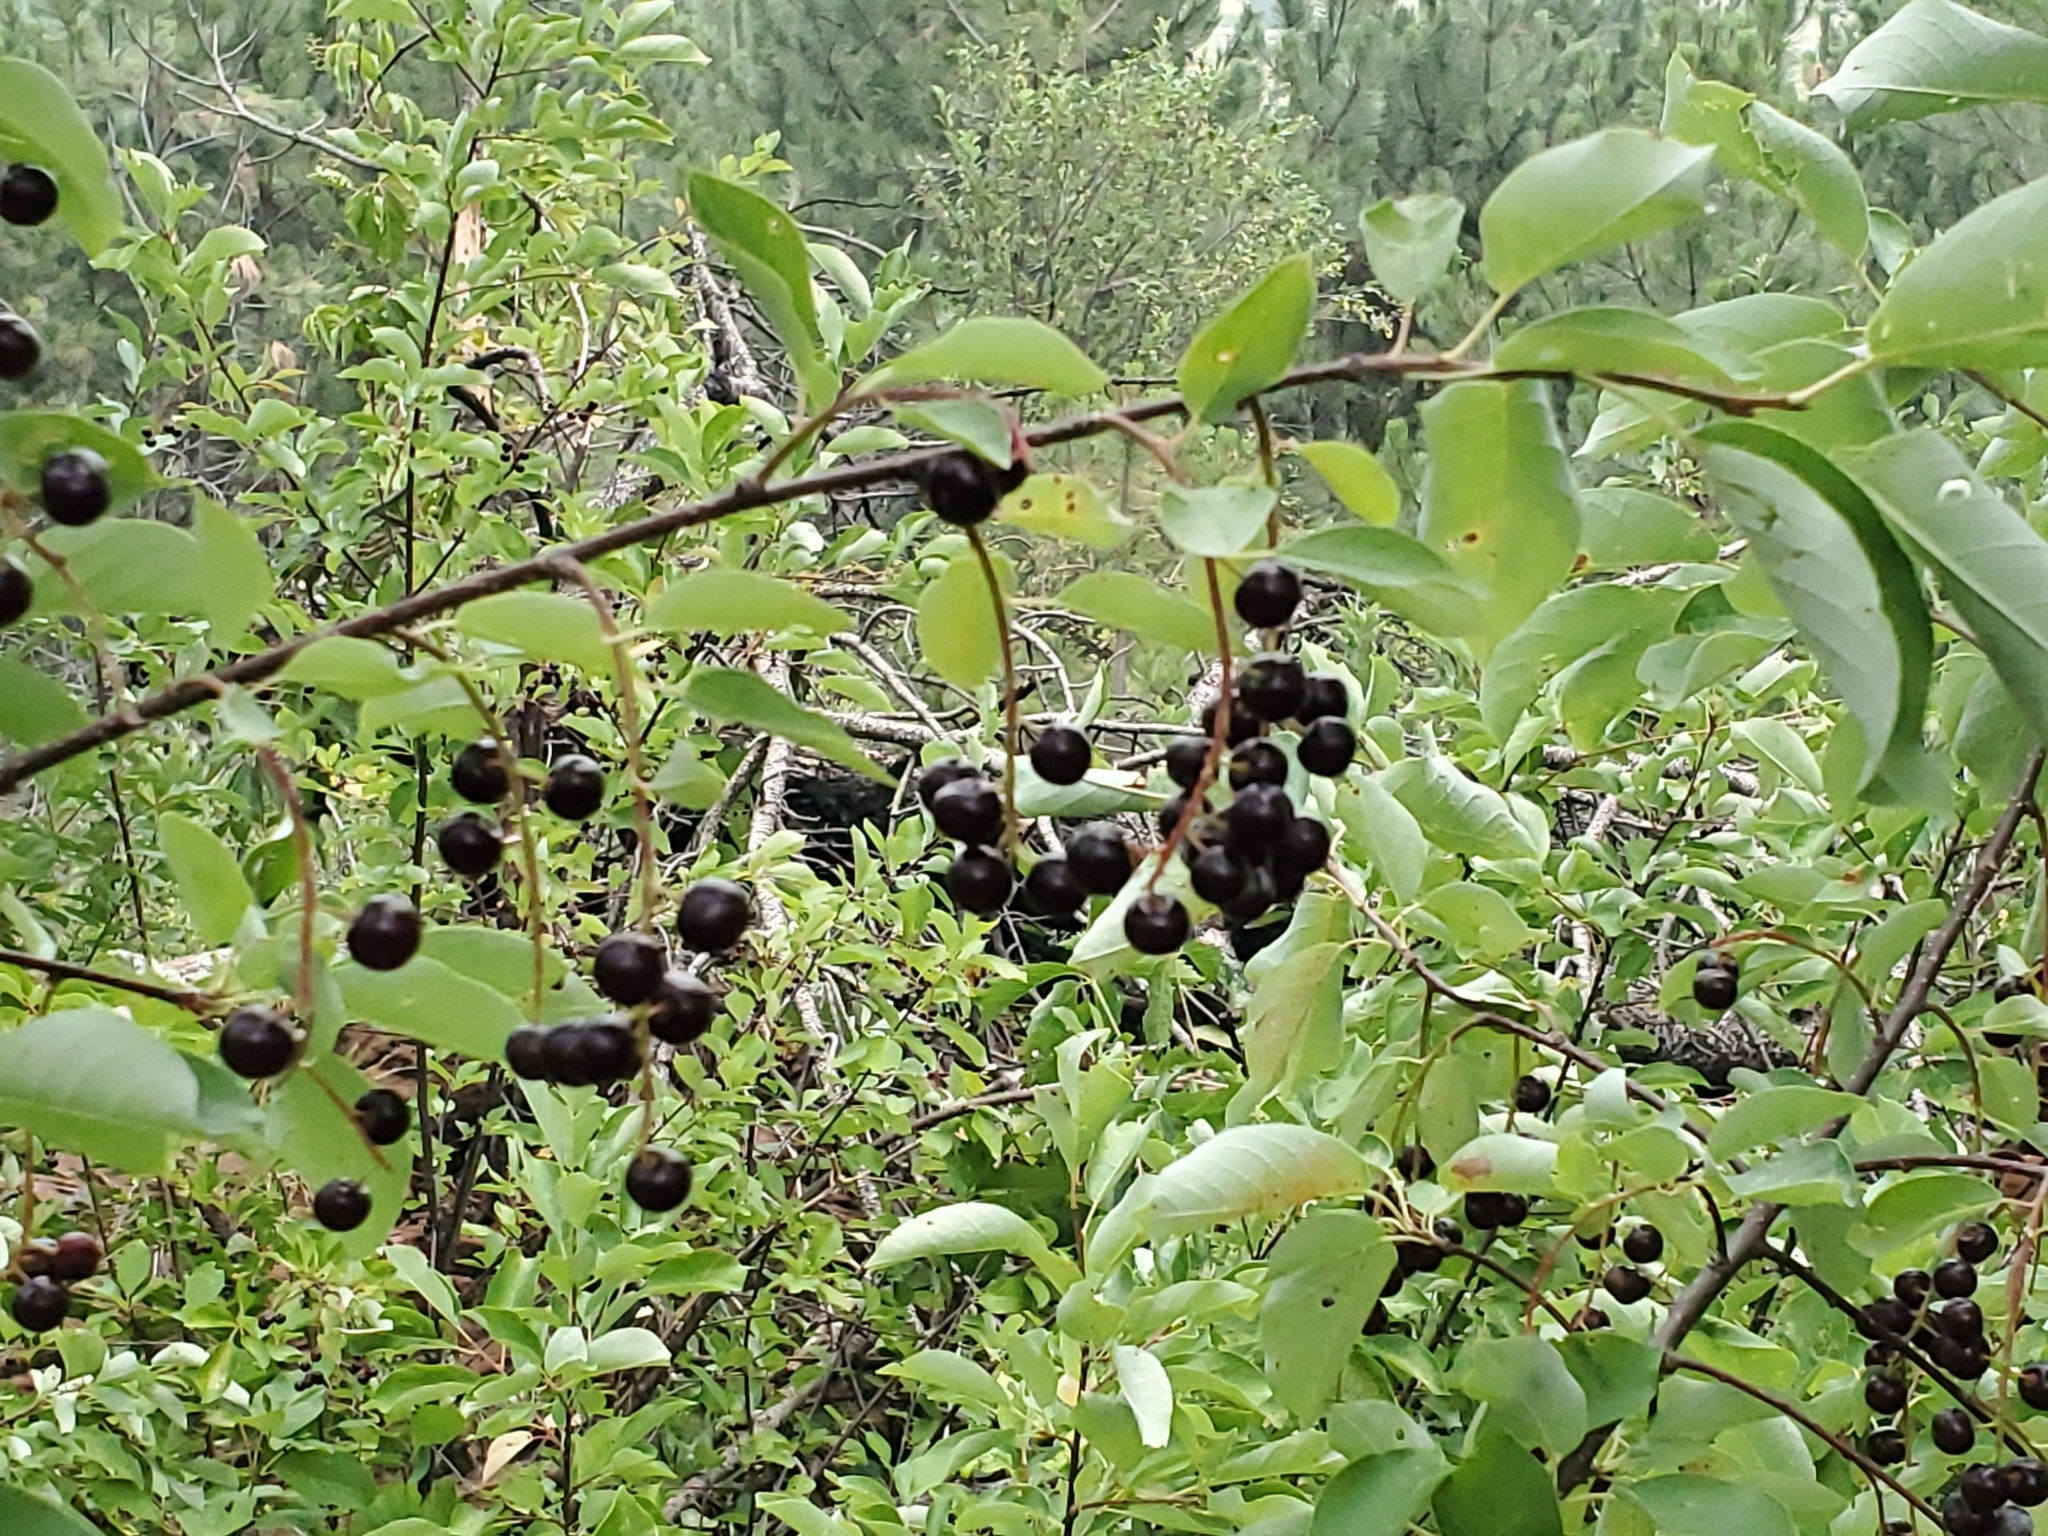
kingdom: Plantae
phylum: Tracheophyta
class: Magnoliopsida
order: Rosales
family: Rosaceae
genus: Prunus
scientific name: Prunus virginiana
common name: Chokecherry
